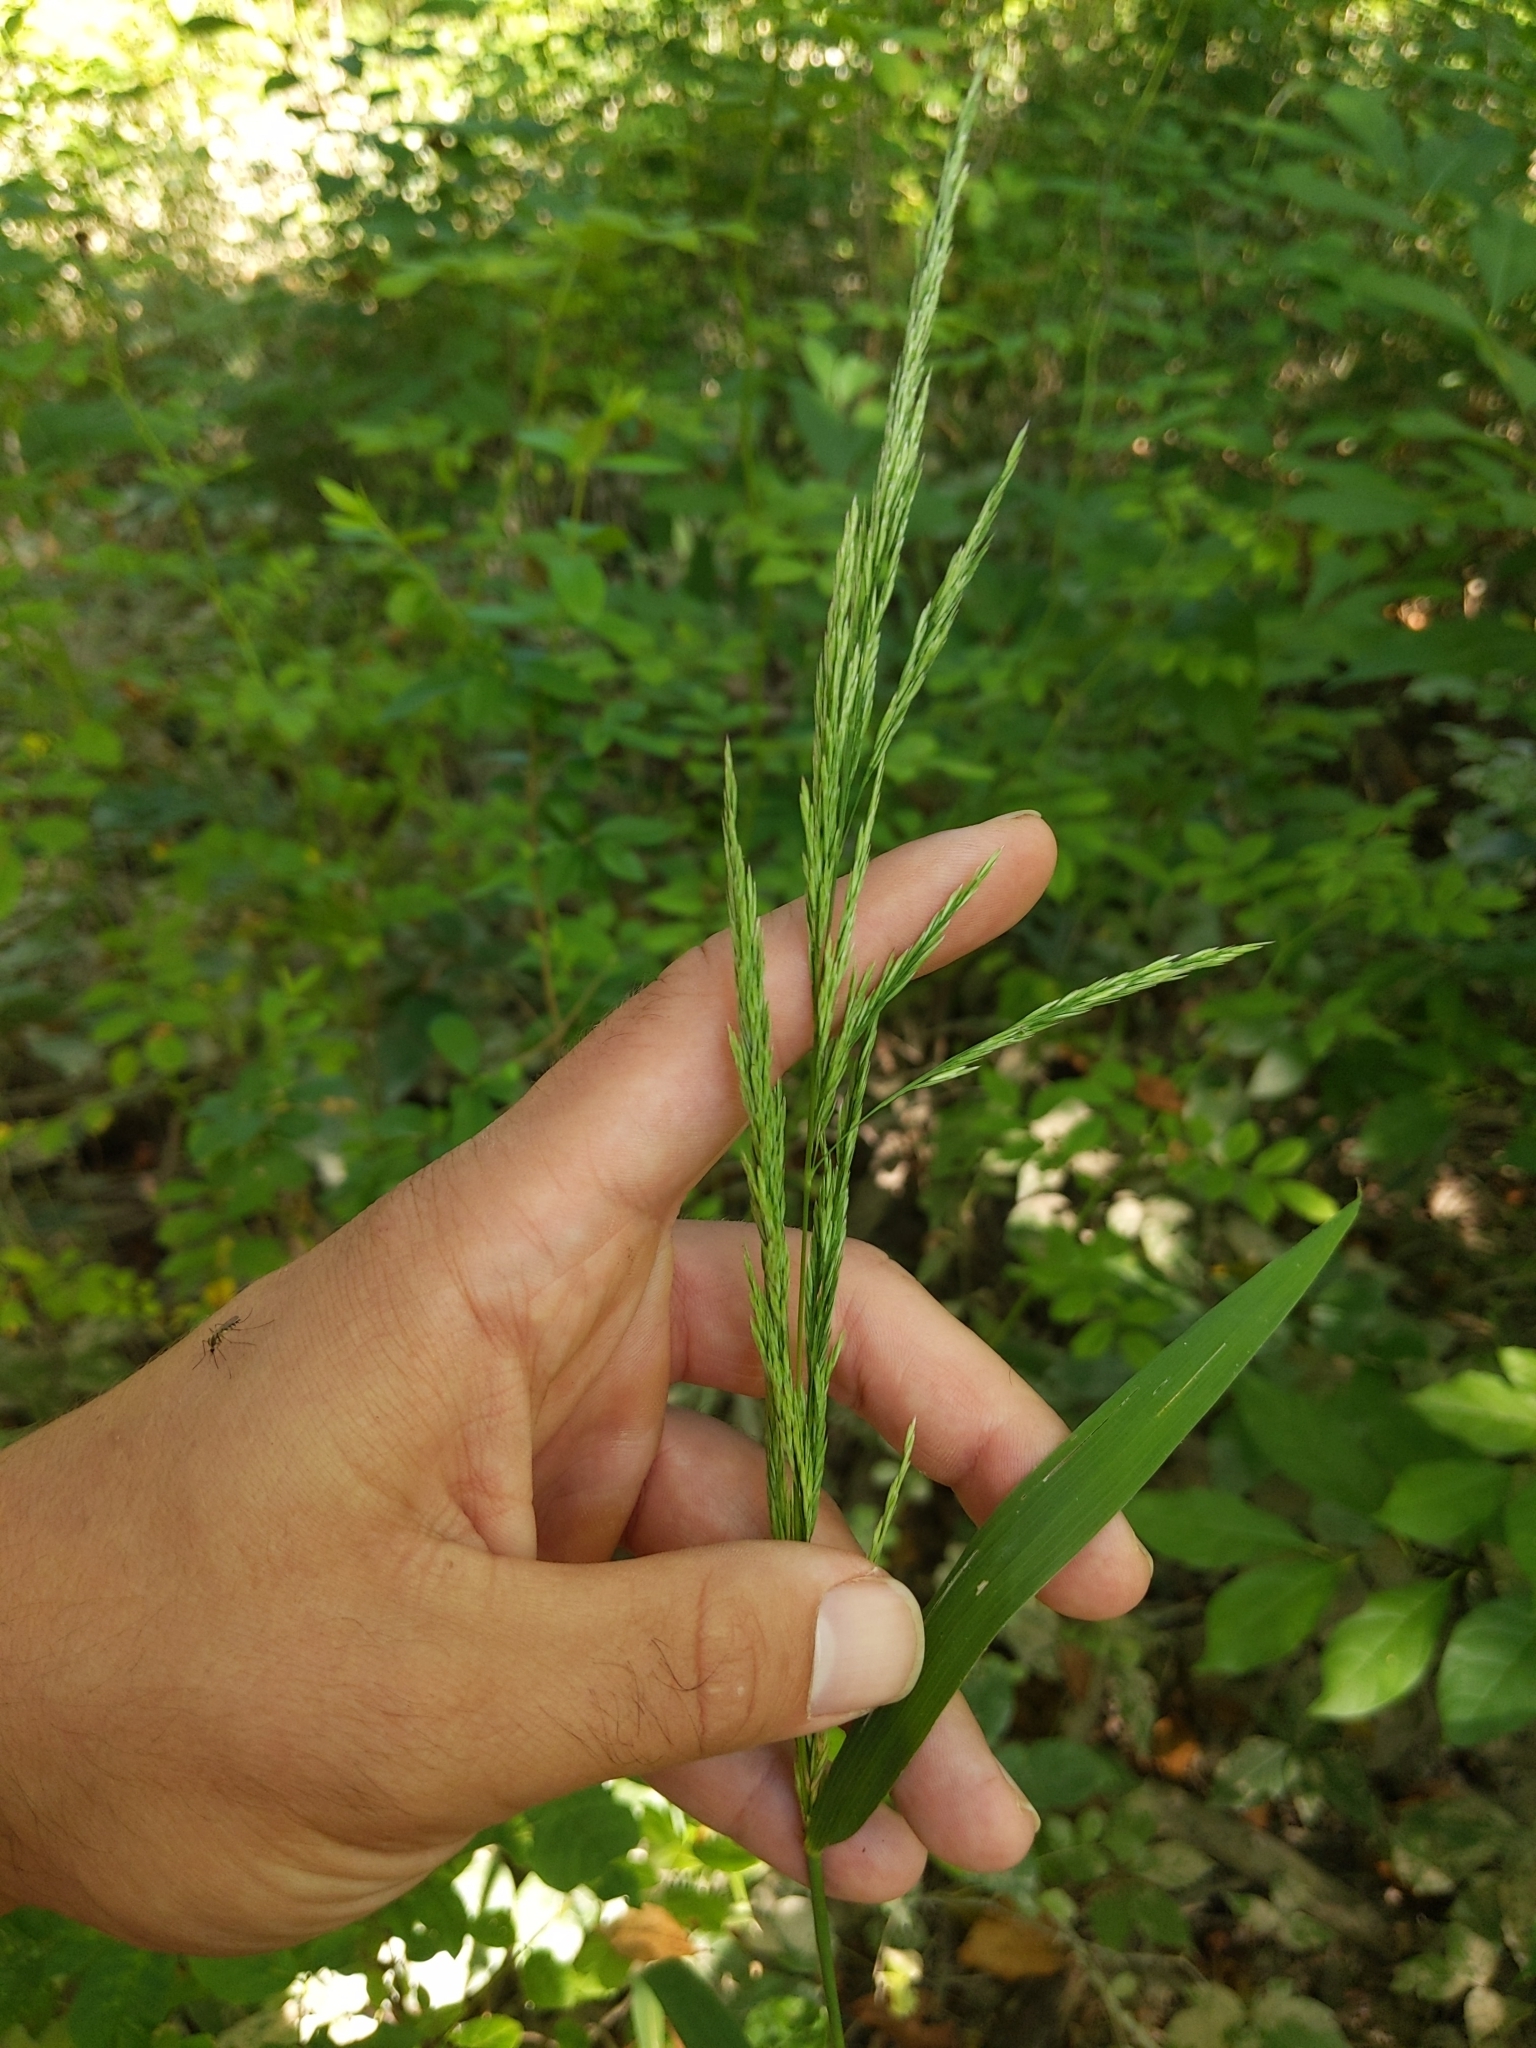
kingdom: Plantae
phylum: Tracheophyta
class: Liliopsida
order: Poales
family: Poaceae
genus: Cinna
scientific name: Cinna arundinacea
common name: Stout woodreed
